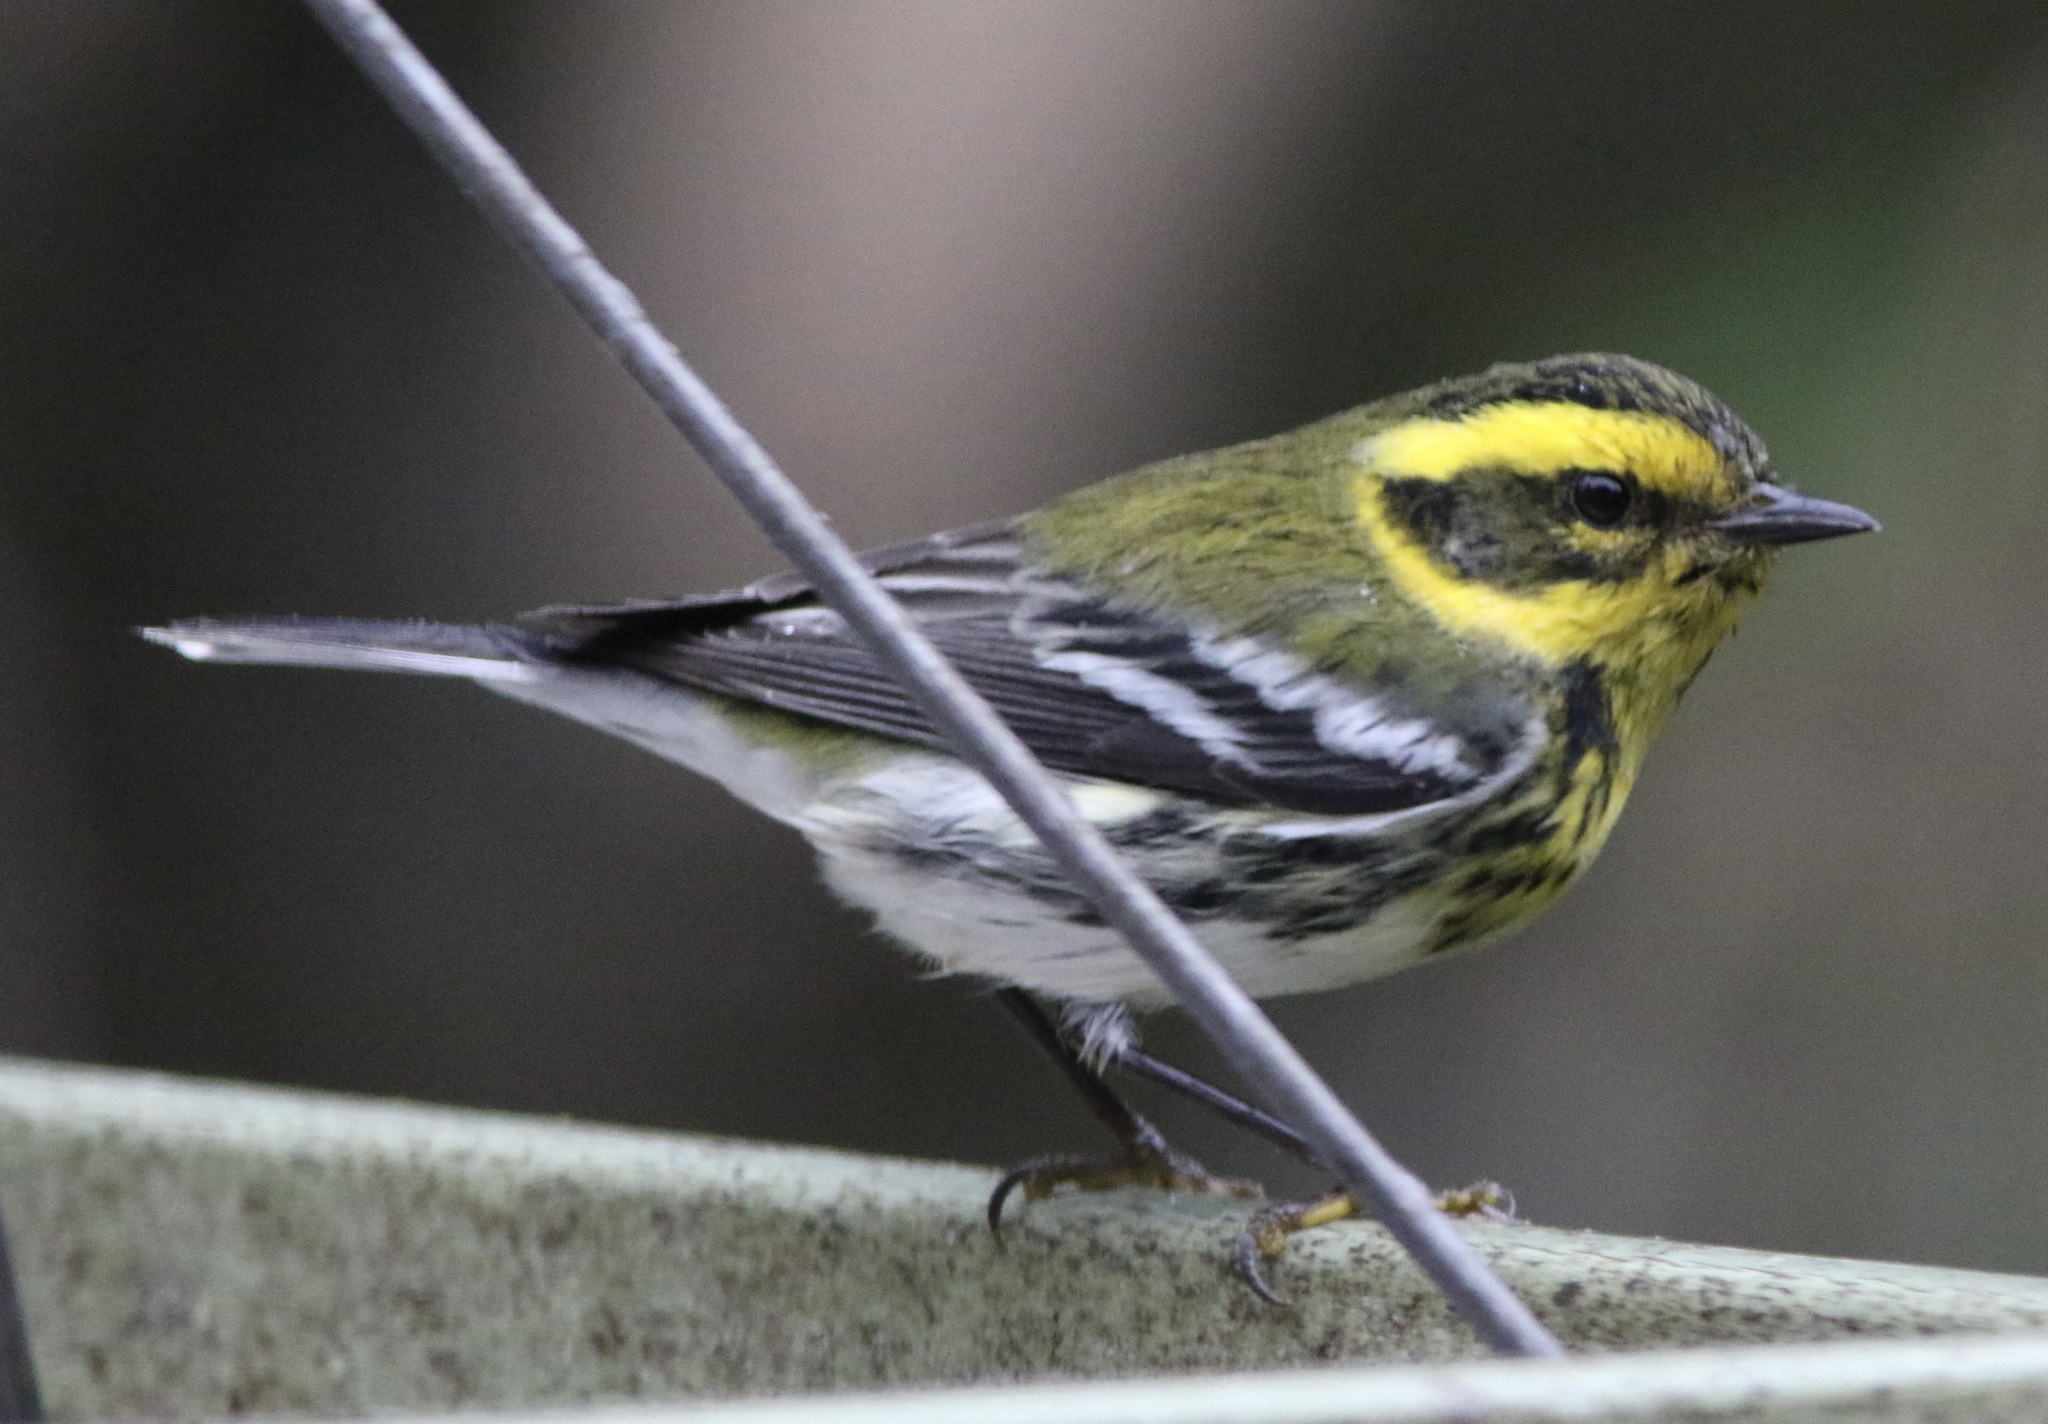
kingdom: Animalia
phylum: Chordata
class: Aves
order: Passeriformes
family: Parulidae
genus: Setophaga
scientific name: Setophaga townsendi
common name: Townsend's warbler
